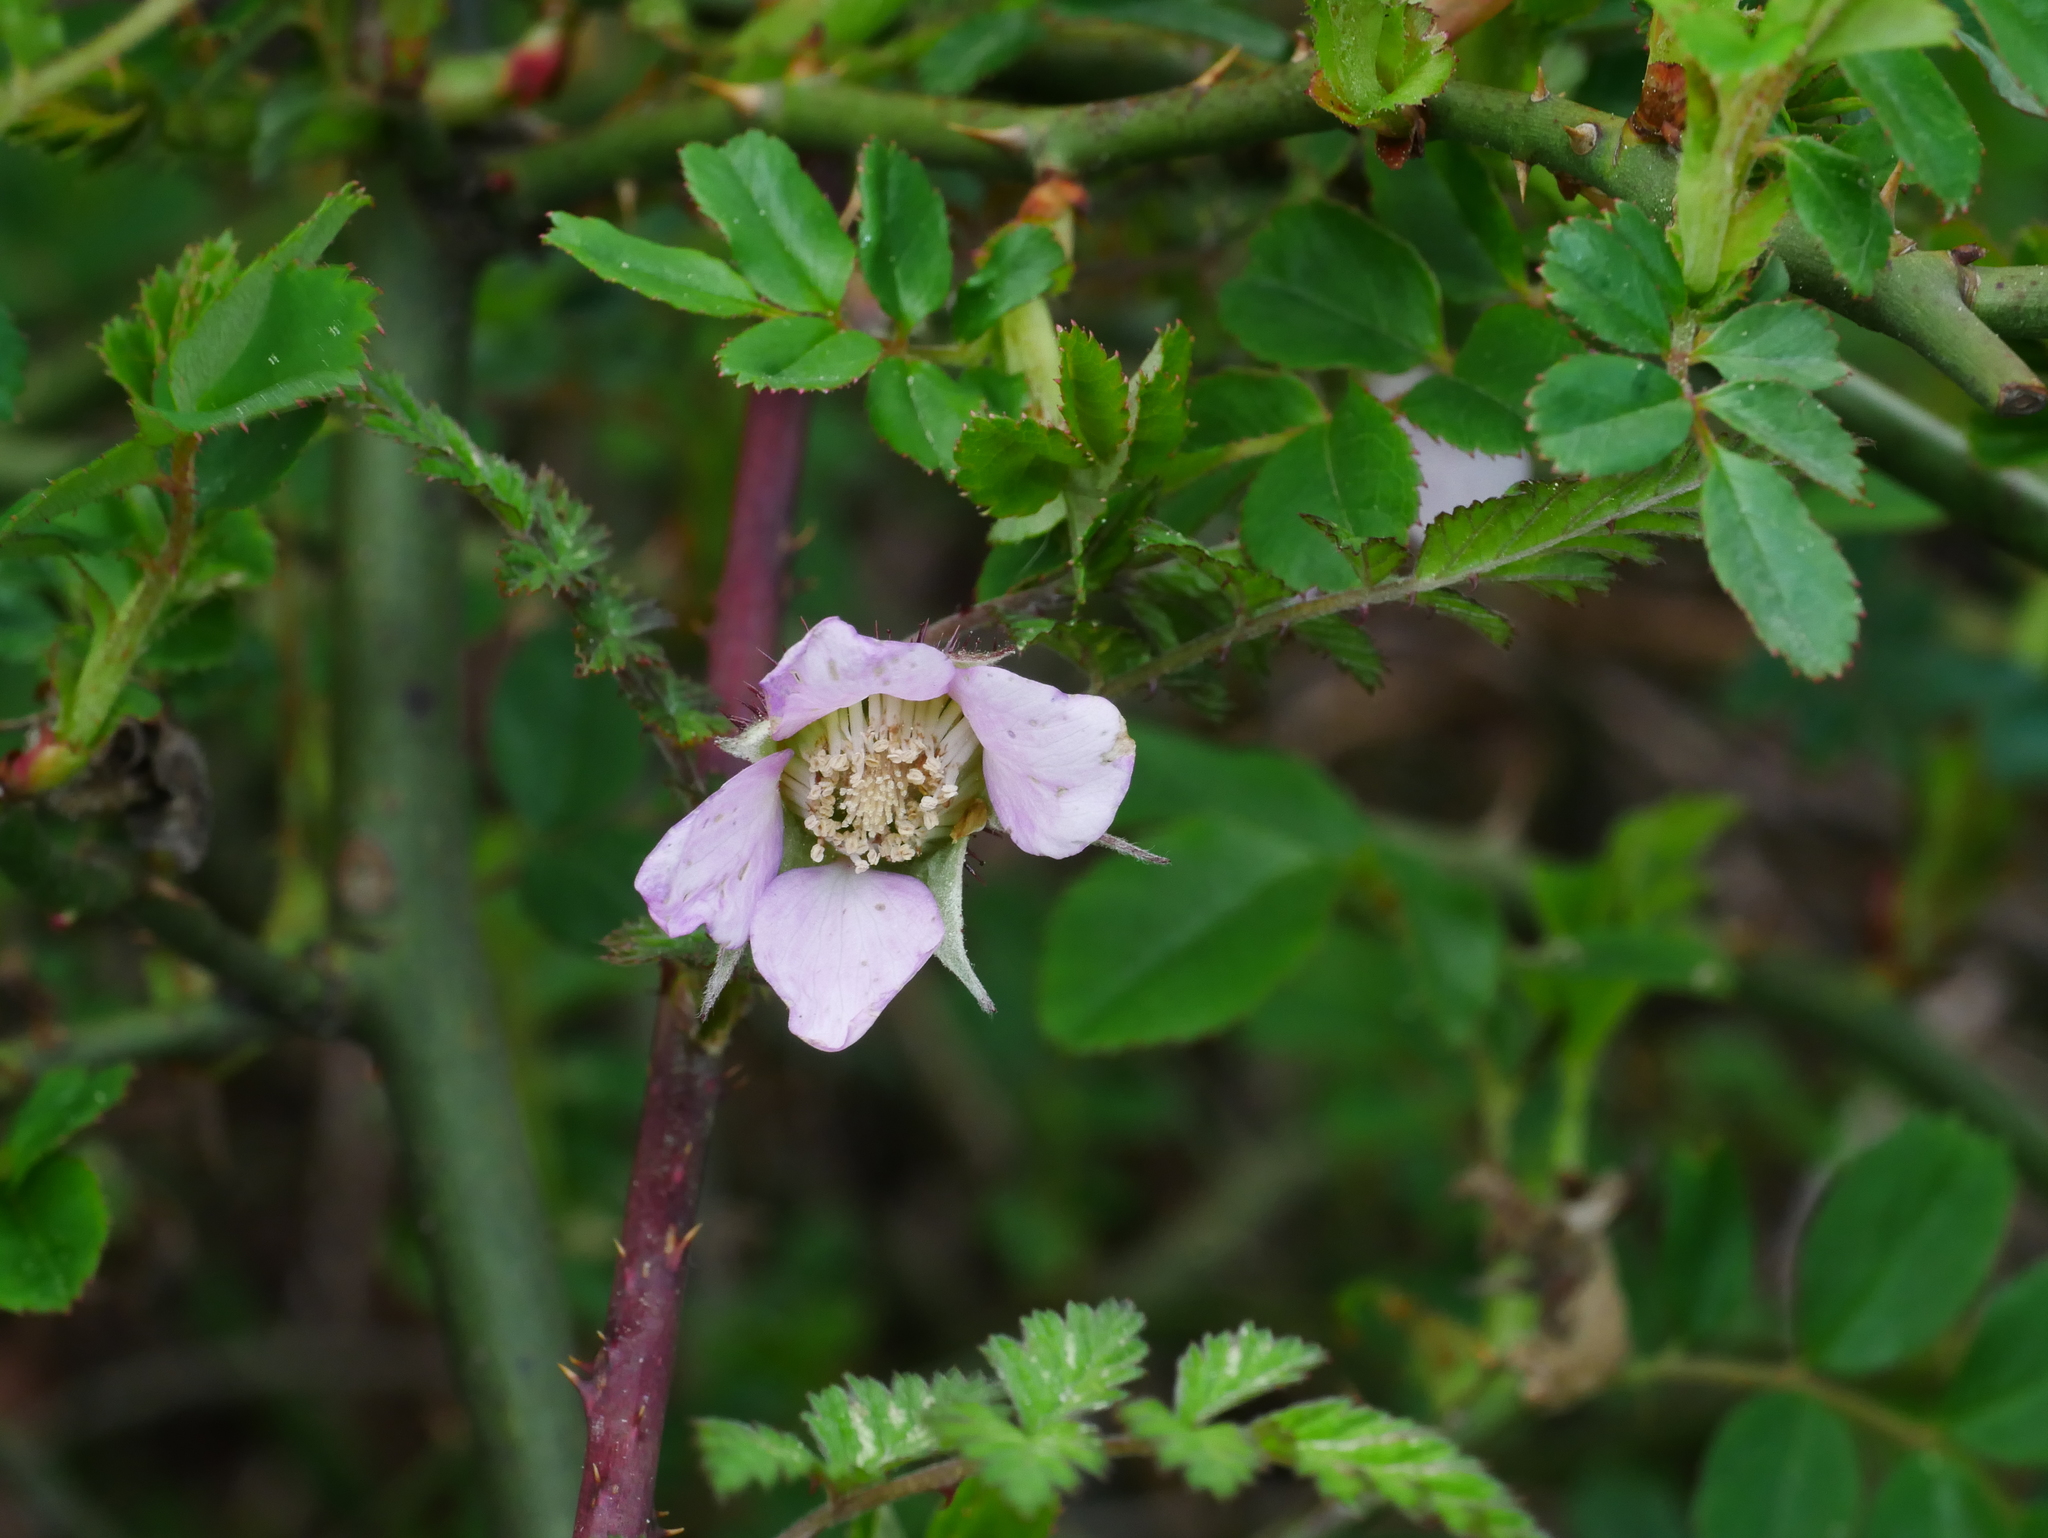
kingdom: Plantae
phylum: Tracheophyta
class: Magnoliopsida
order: Rosales
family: Rosaceae
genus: Rubus
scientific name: Rubus pungens
